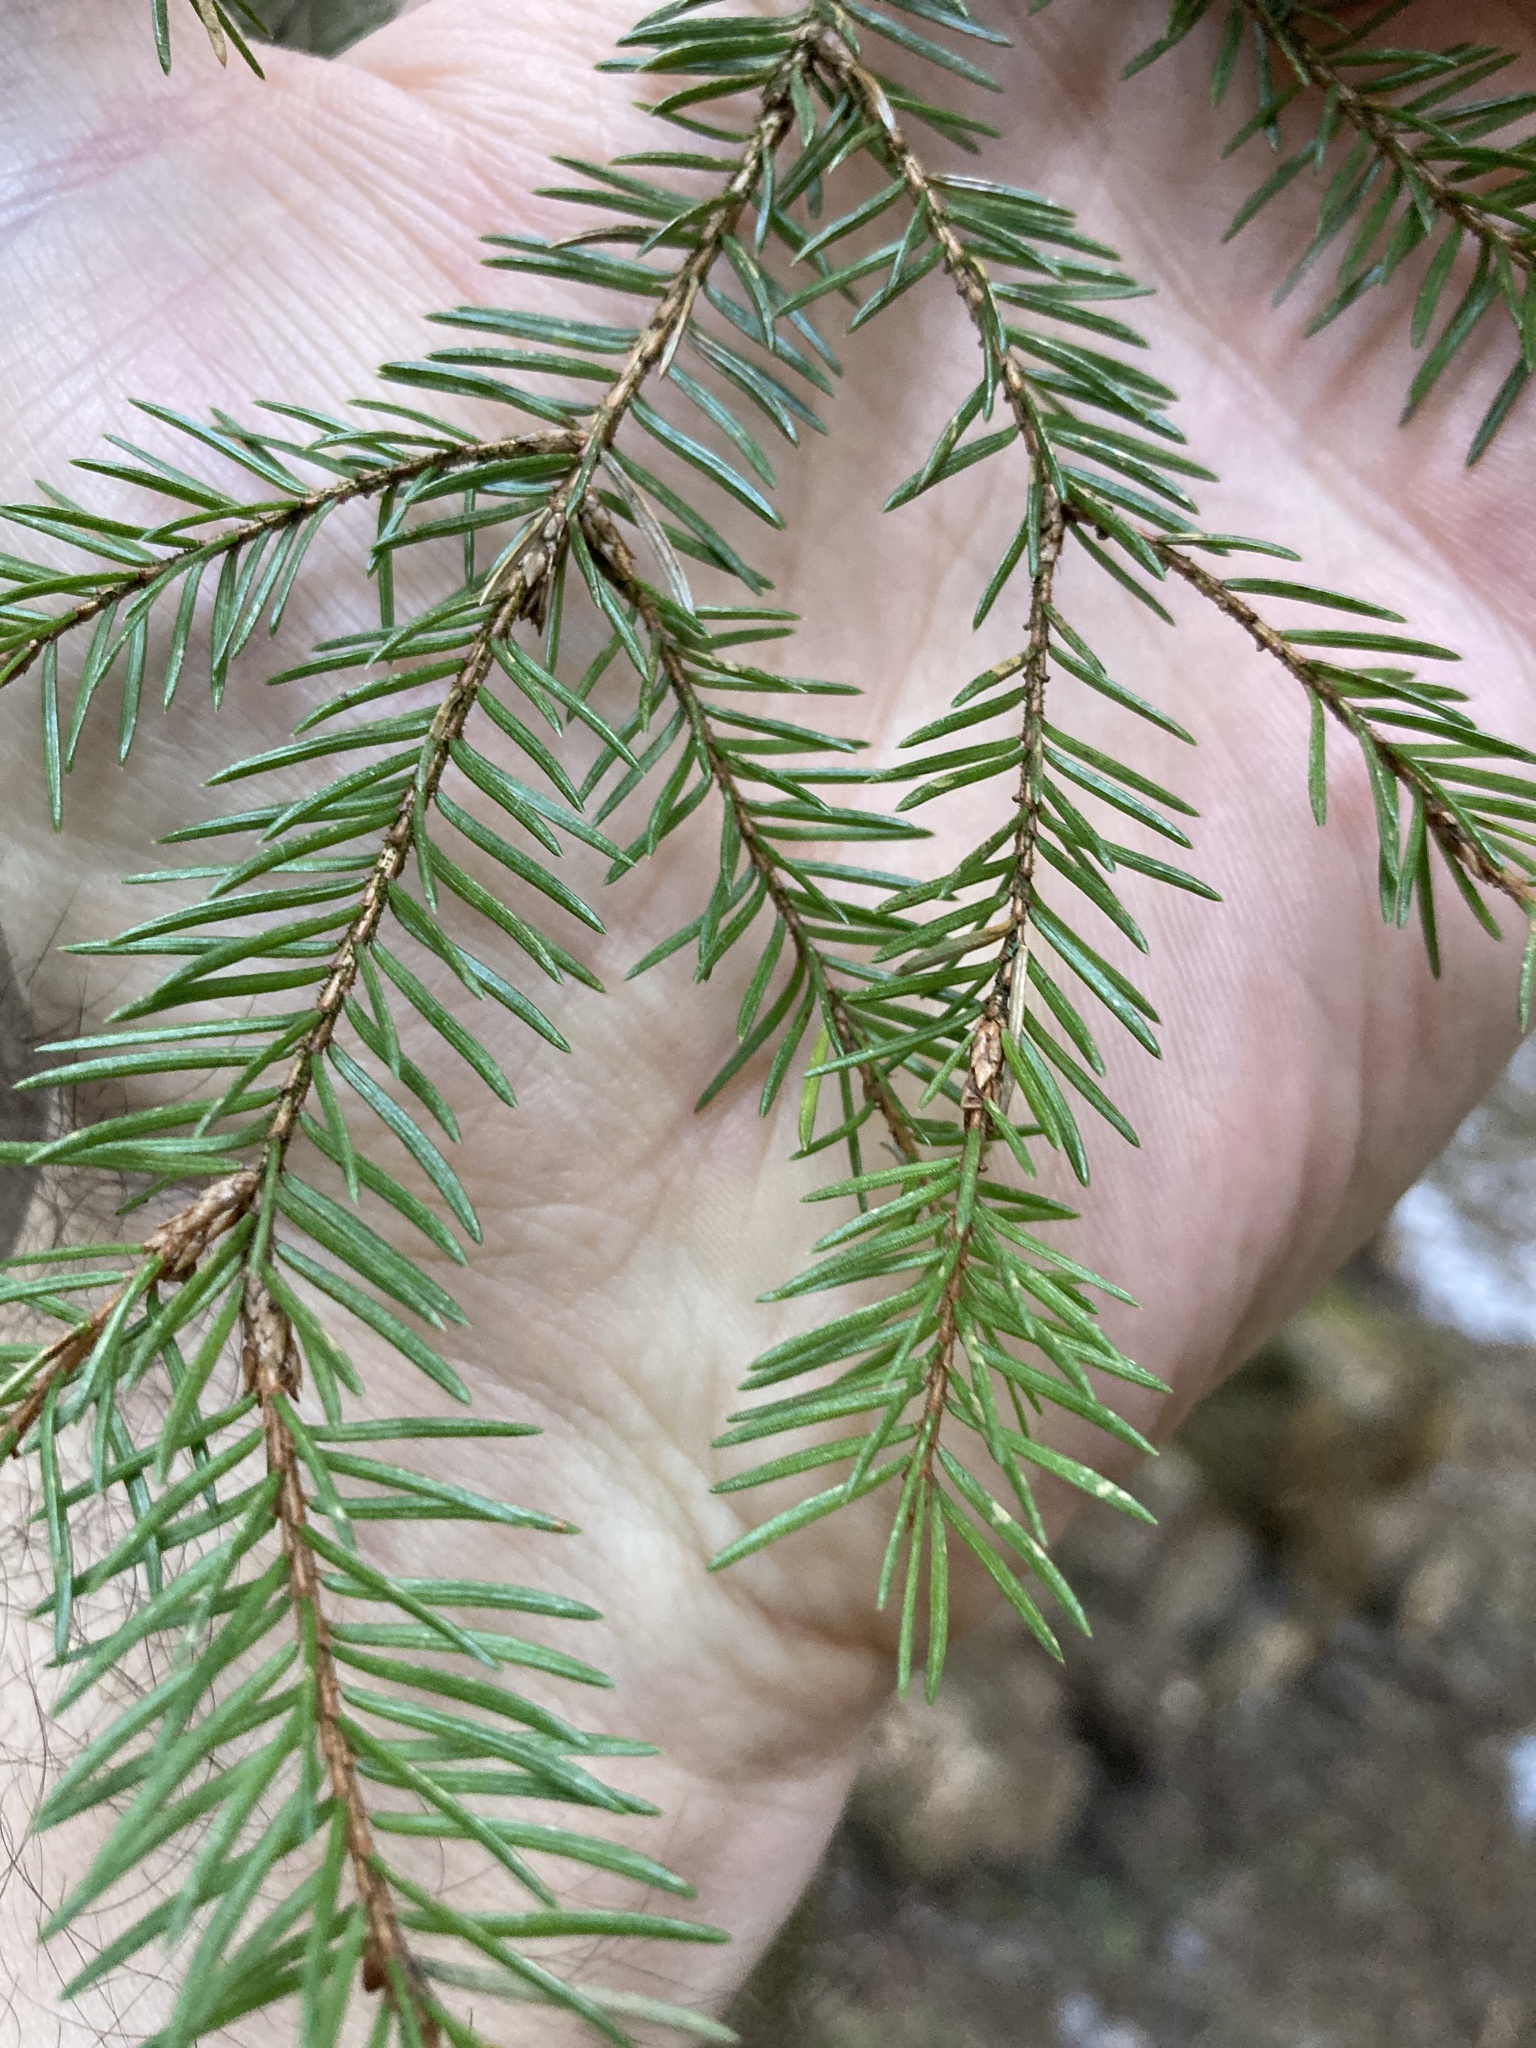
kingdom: Plantae
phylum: Tracheophyta
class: Pinopsida
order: Pinales
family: Pinaceae
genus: Picea
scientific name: Picea abies
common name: Norway spruce
